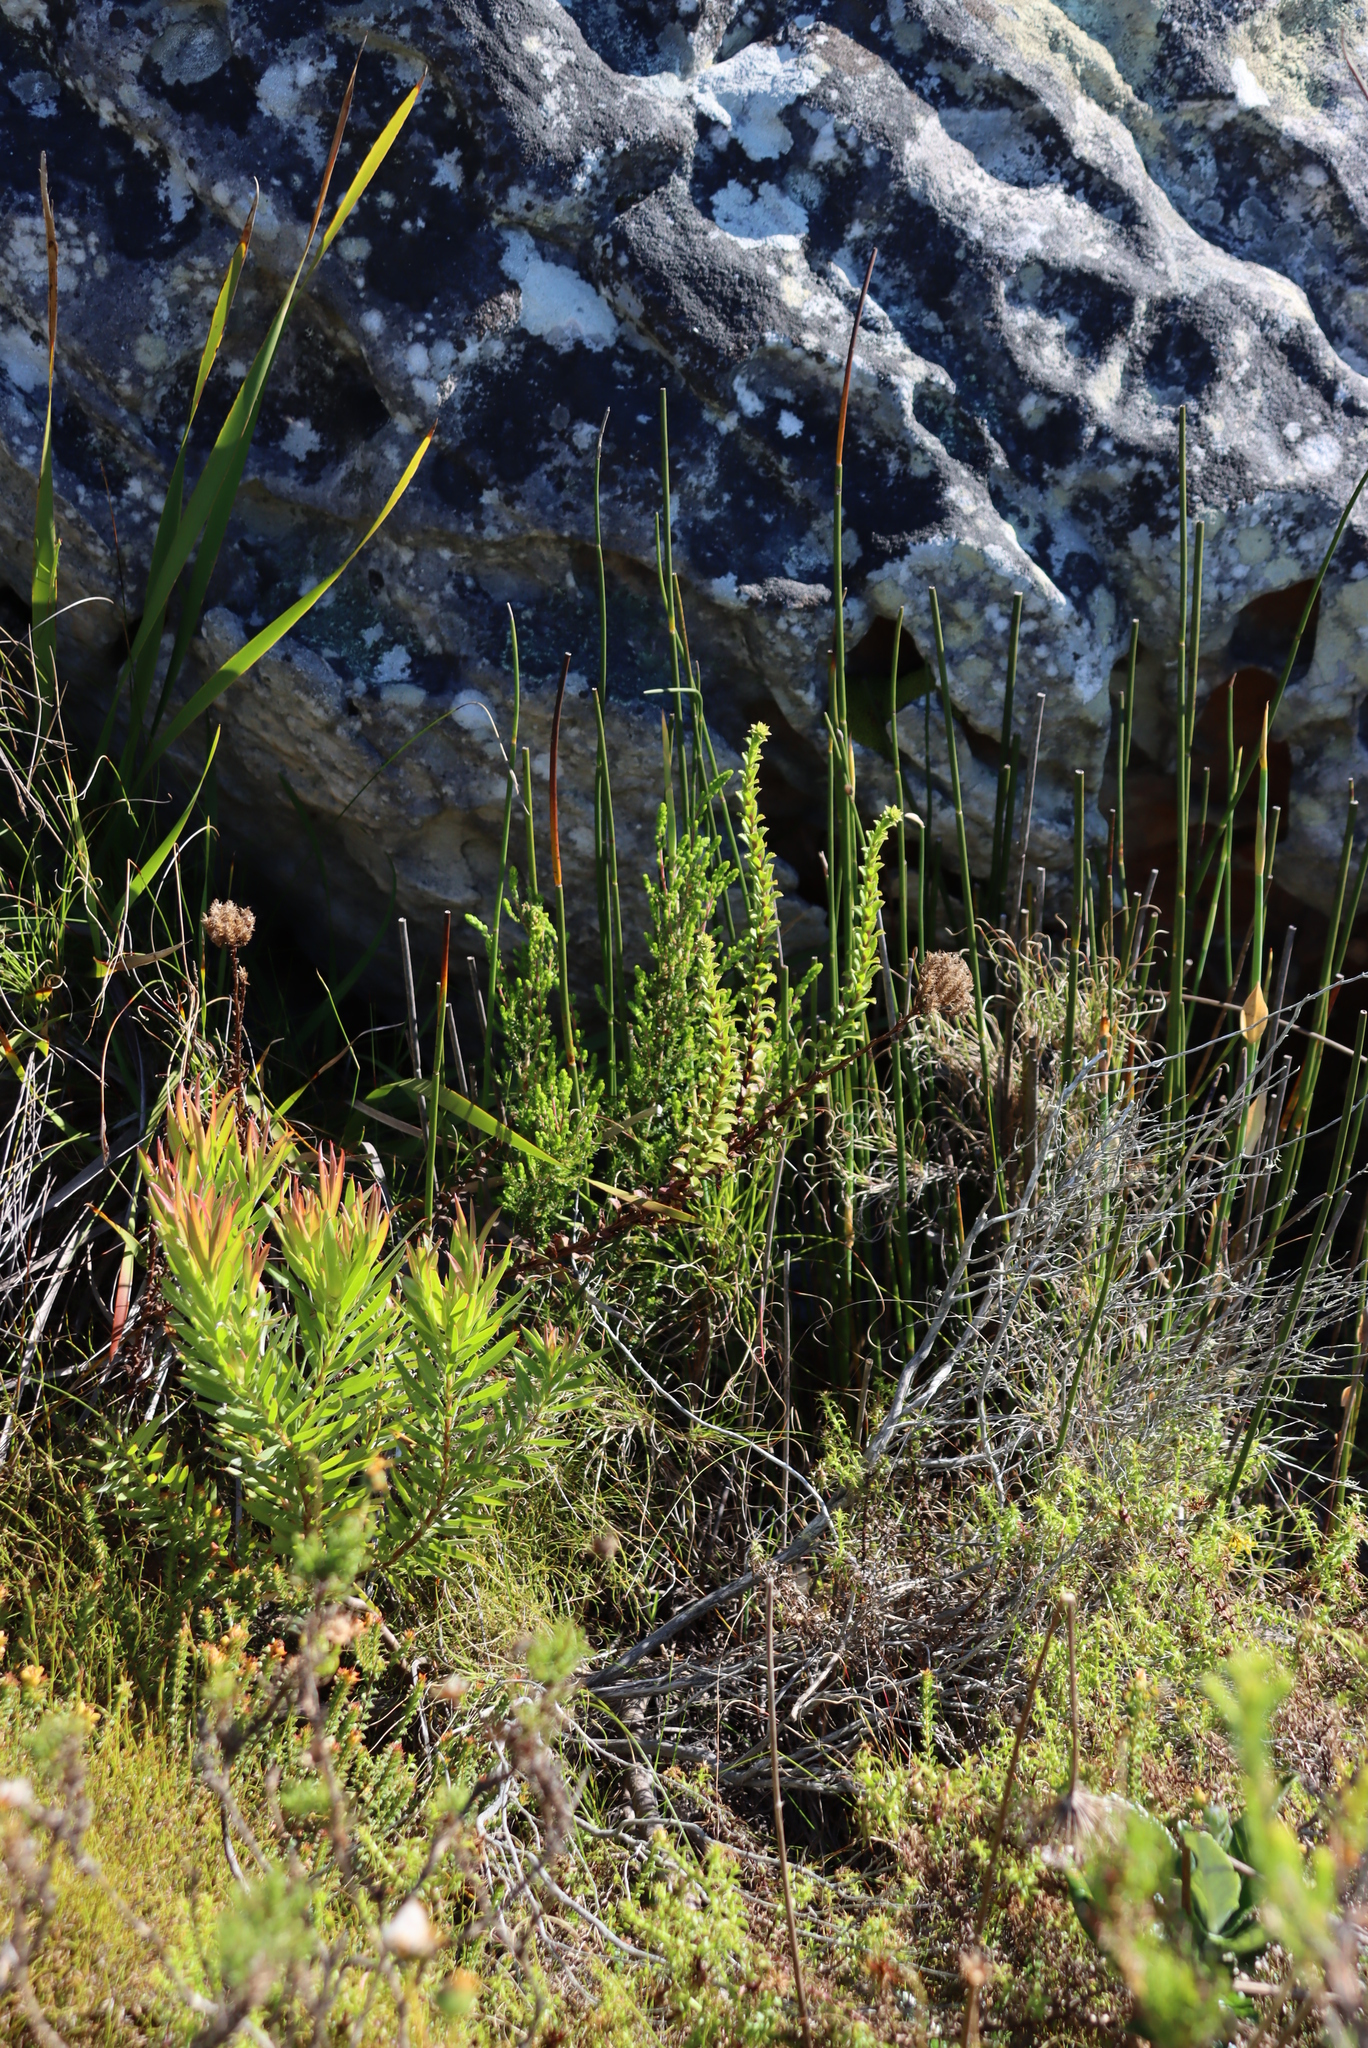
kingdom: Plantae
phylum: Tracheophyta
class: Magnoliopsida
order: Lamiales
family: Scrophulariaceae
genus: Pseudoselago
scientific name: Pseudoselago serrata
